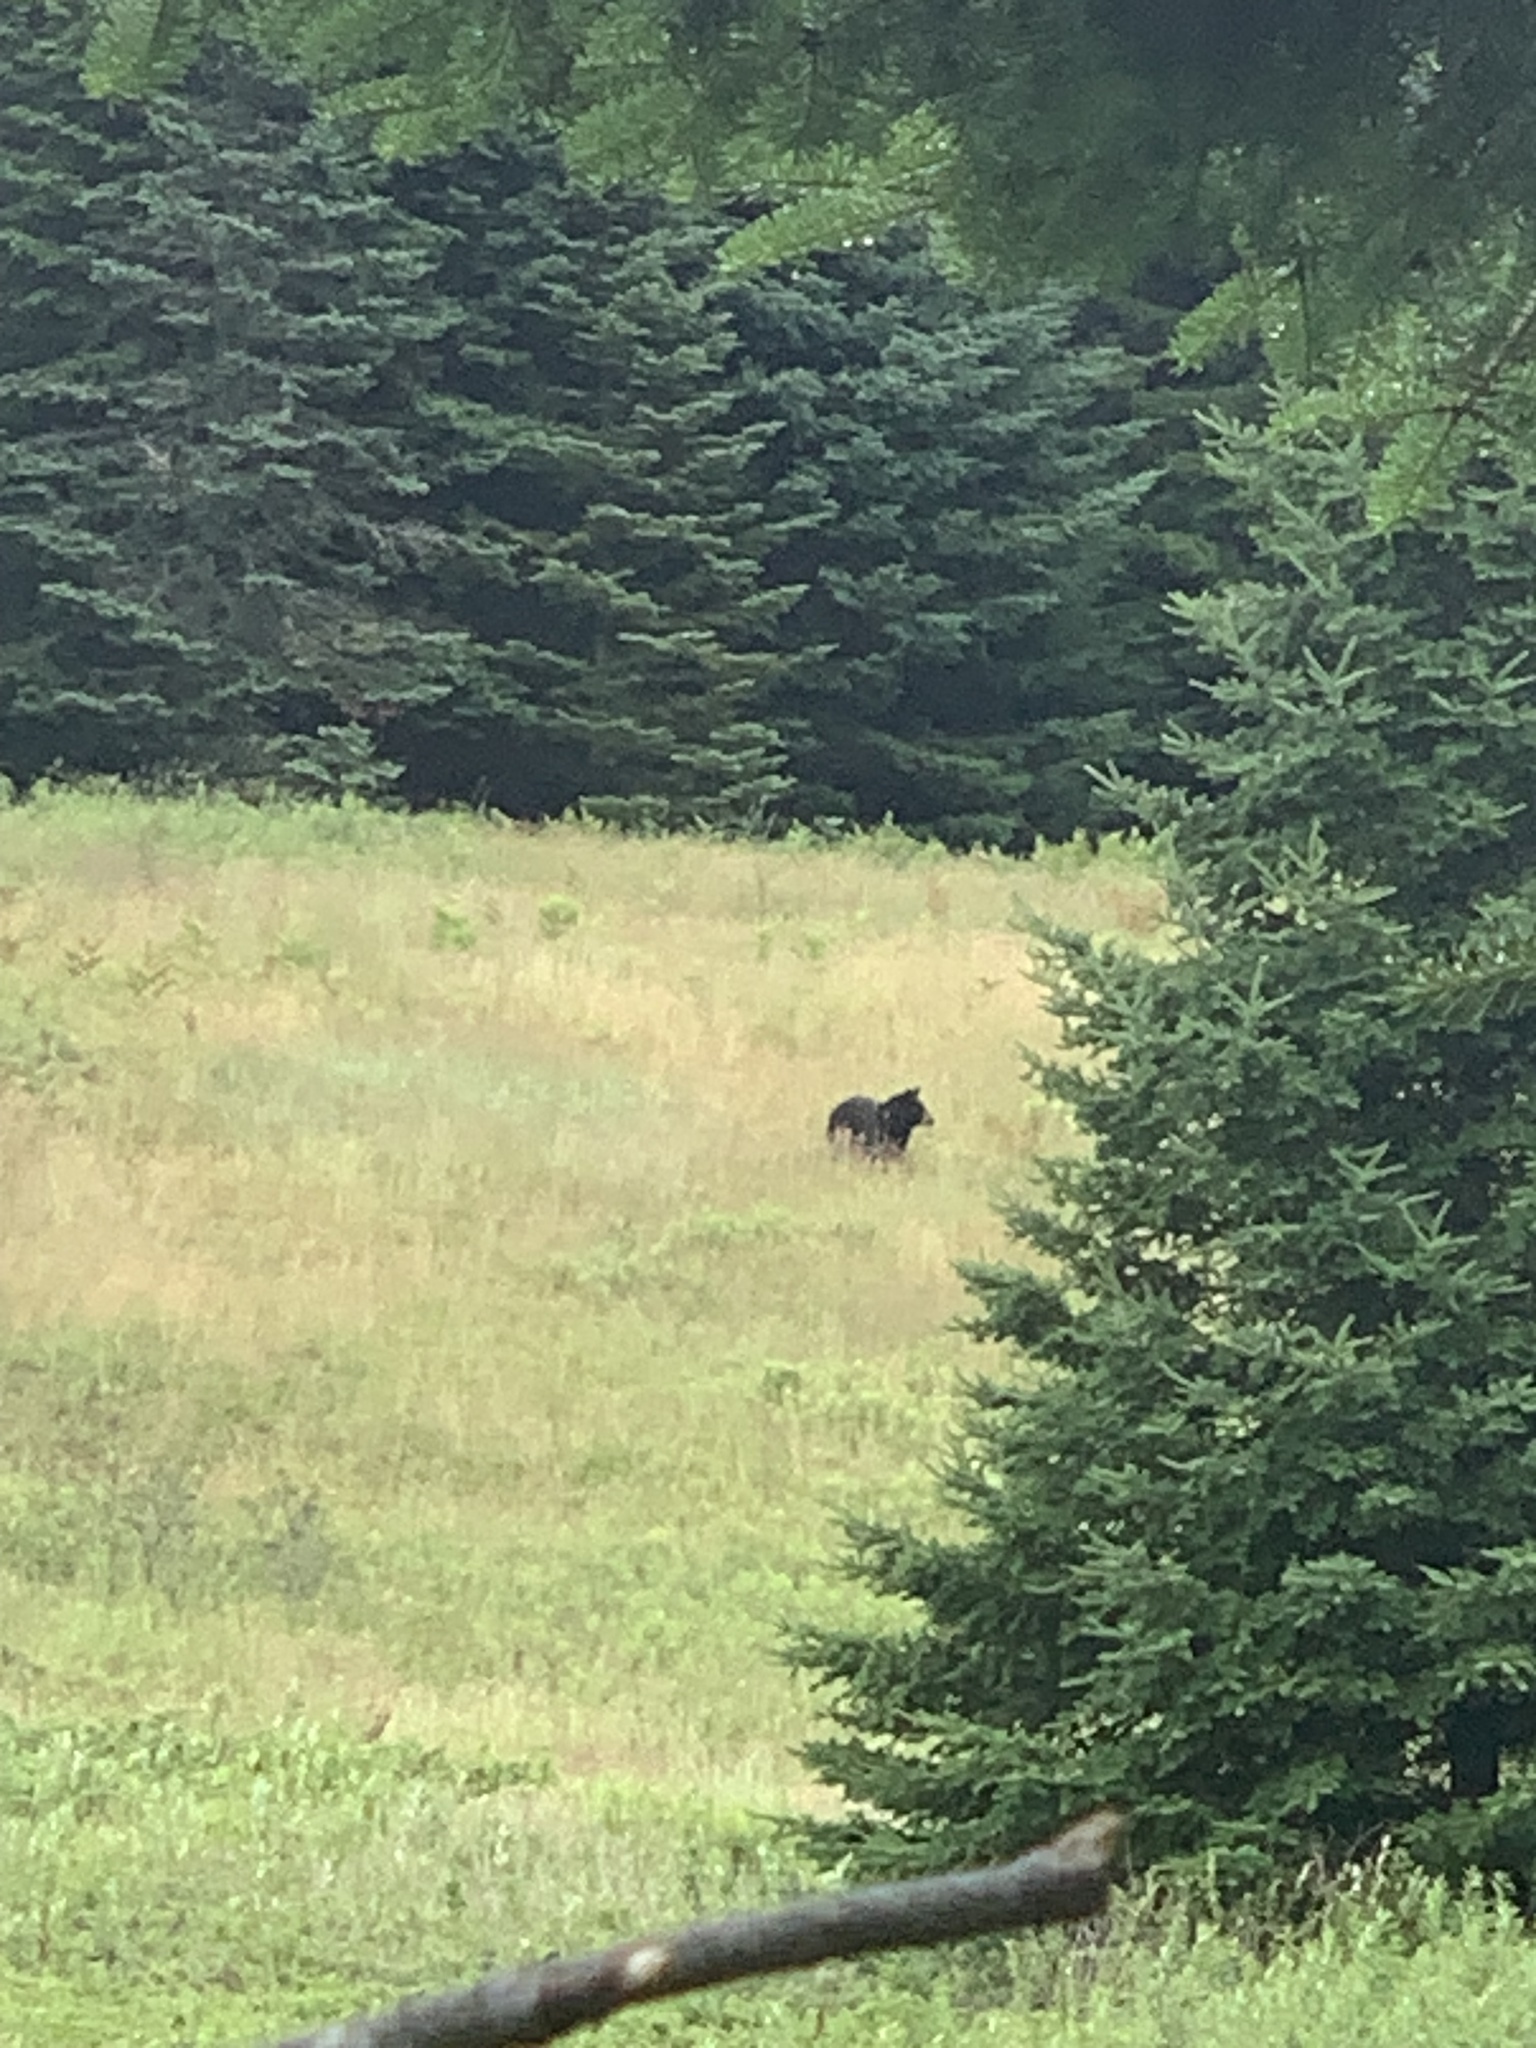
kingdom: Animalia
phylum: Chordata
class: Mammalia
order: Carnivora
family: Ursidae
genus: Ursus
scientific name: Ursus americanus
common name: American black bear
